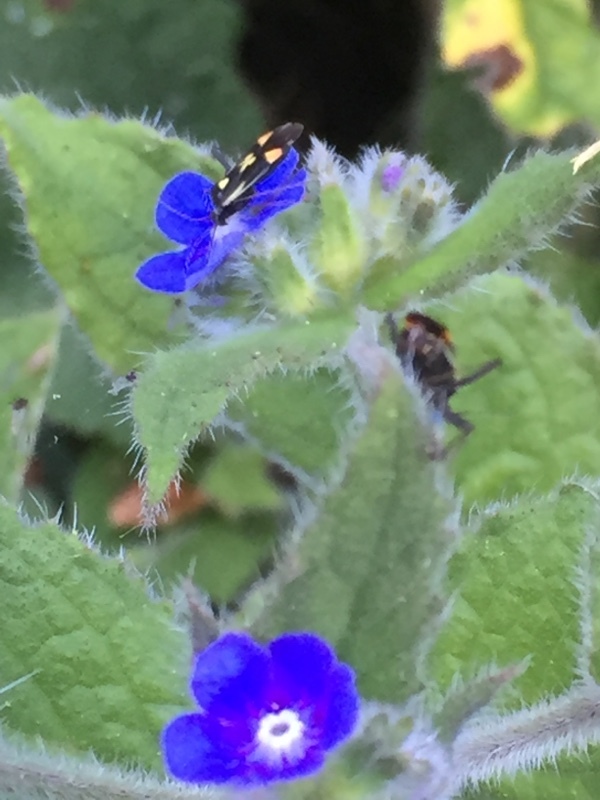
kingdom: Plantae
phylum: Tracheophyta
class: Magnoliopsida
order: Boraginales
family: Boraginaceae
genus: Pentaglottis
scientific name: Pentaglottis sempervirens
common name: Green alkanet
